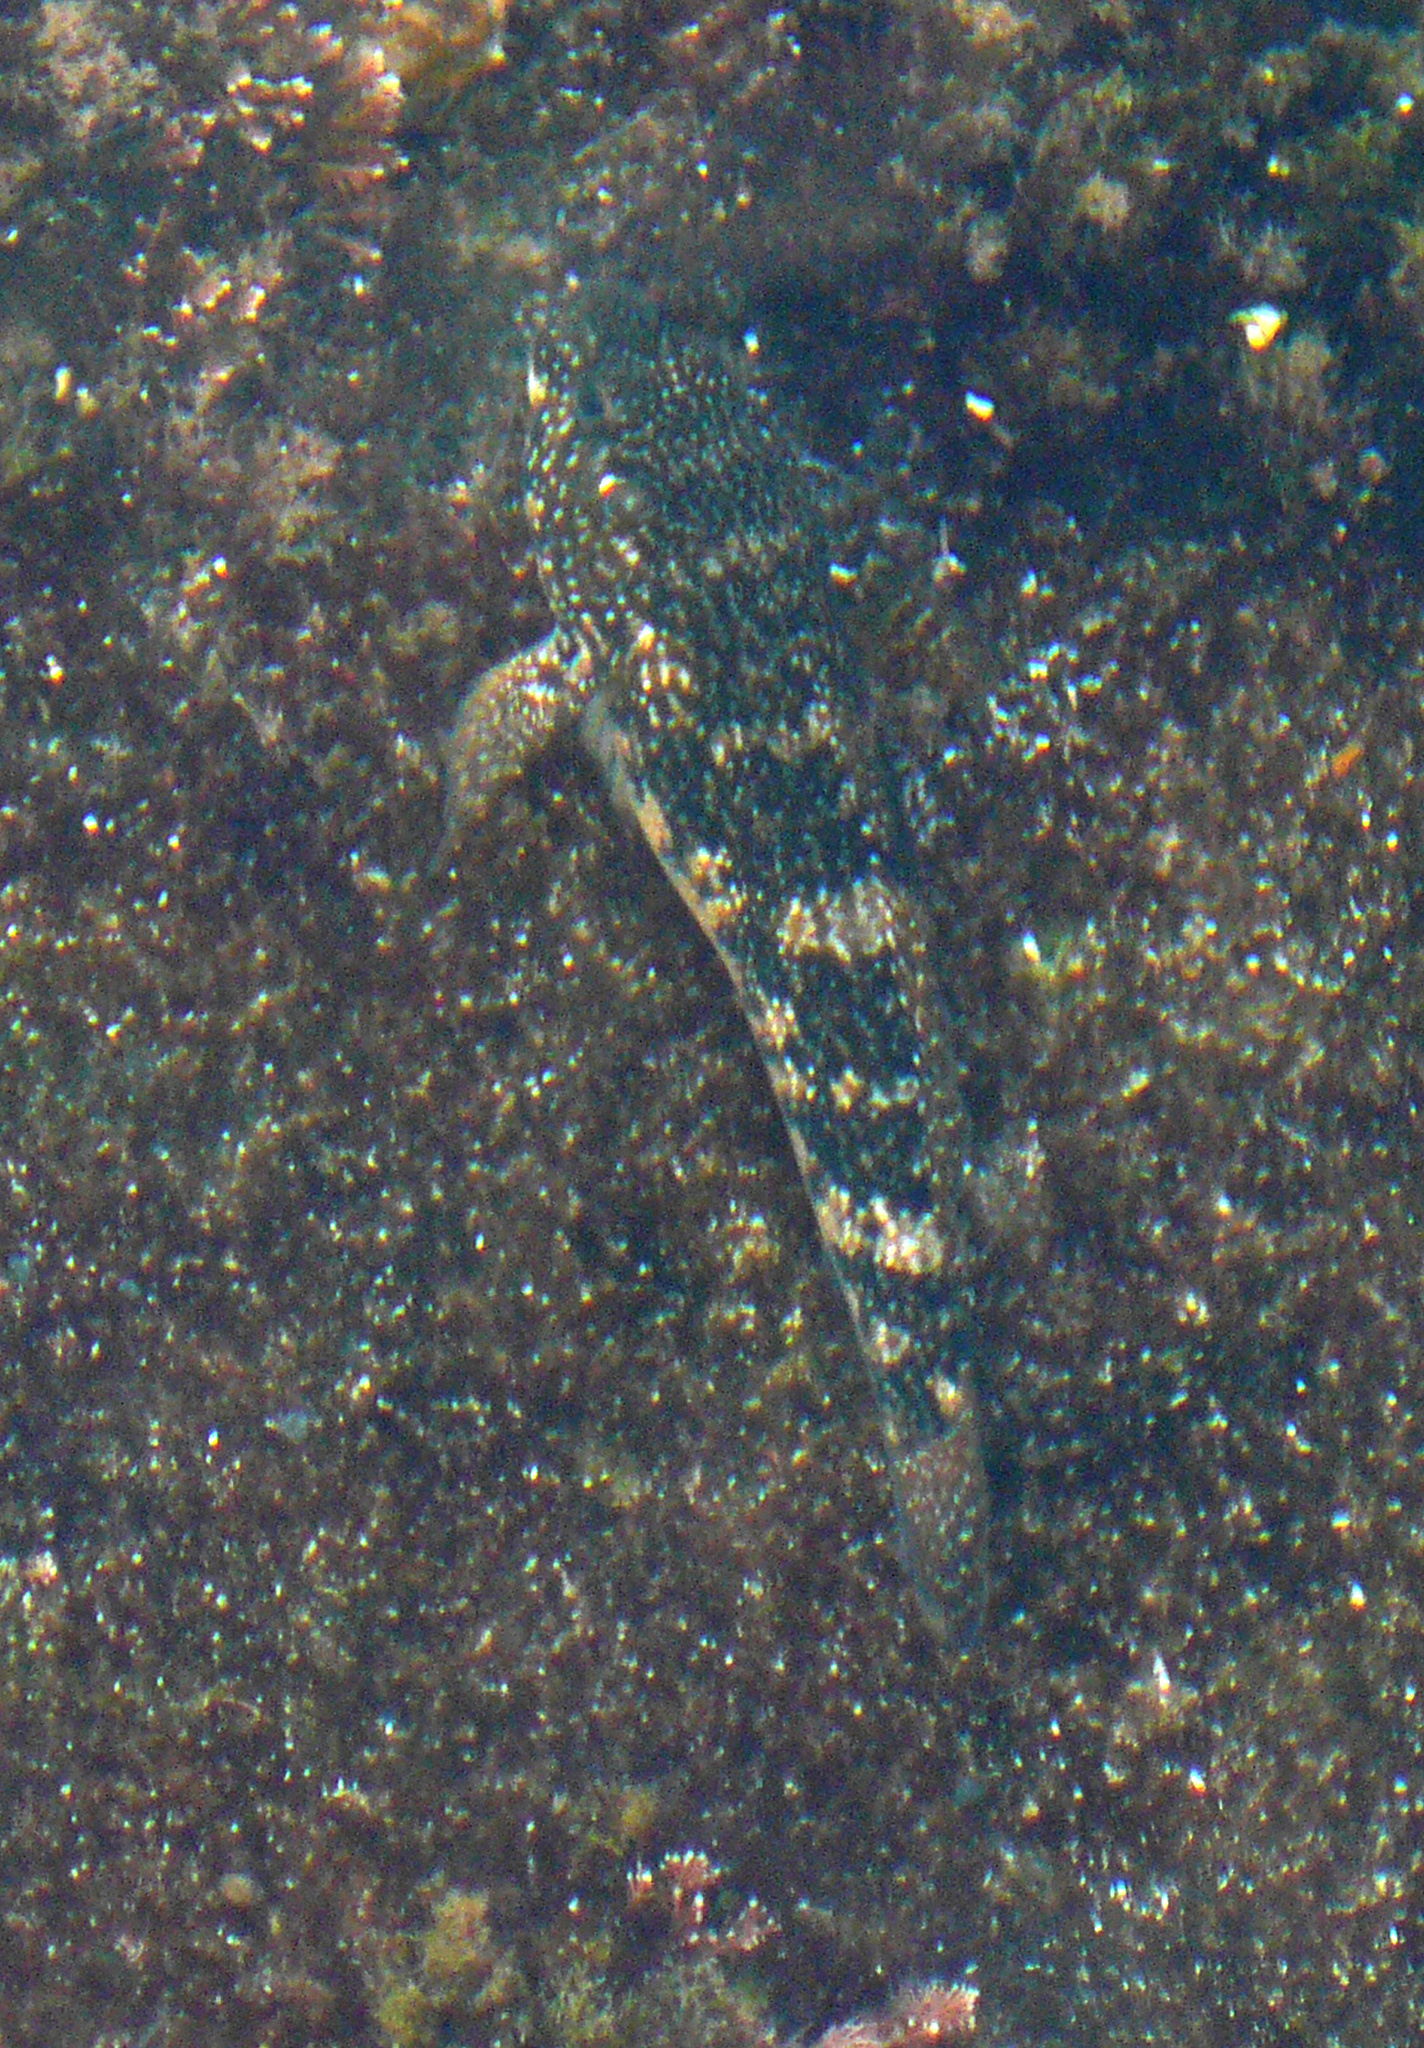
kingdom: Animalia
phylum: Chordata
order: Perciformes
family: Gobiidae
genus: Mauligobius
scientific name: Mauligobius maderensis
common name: Rock goby
